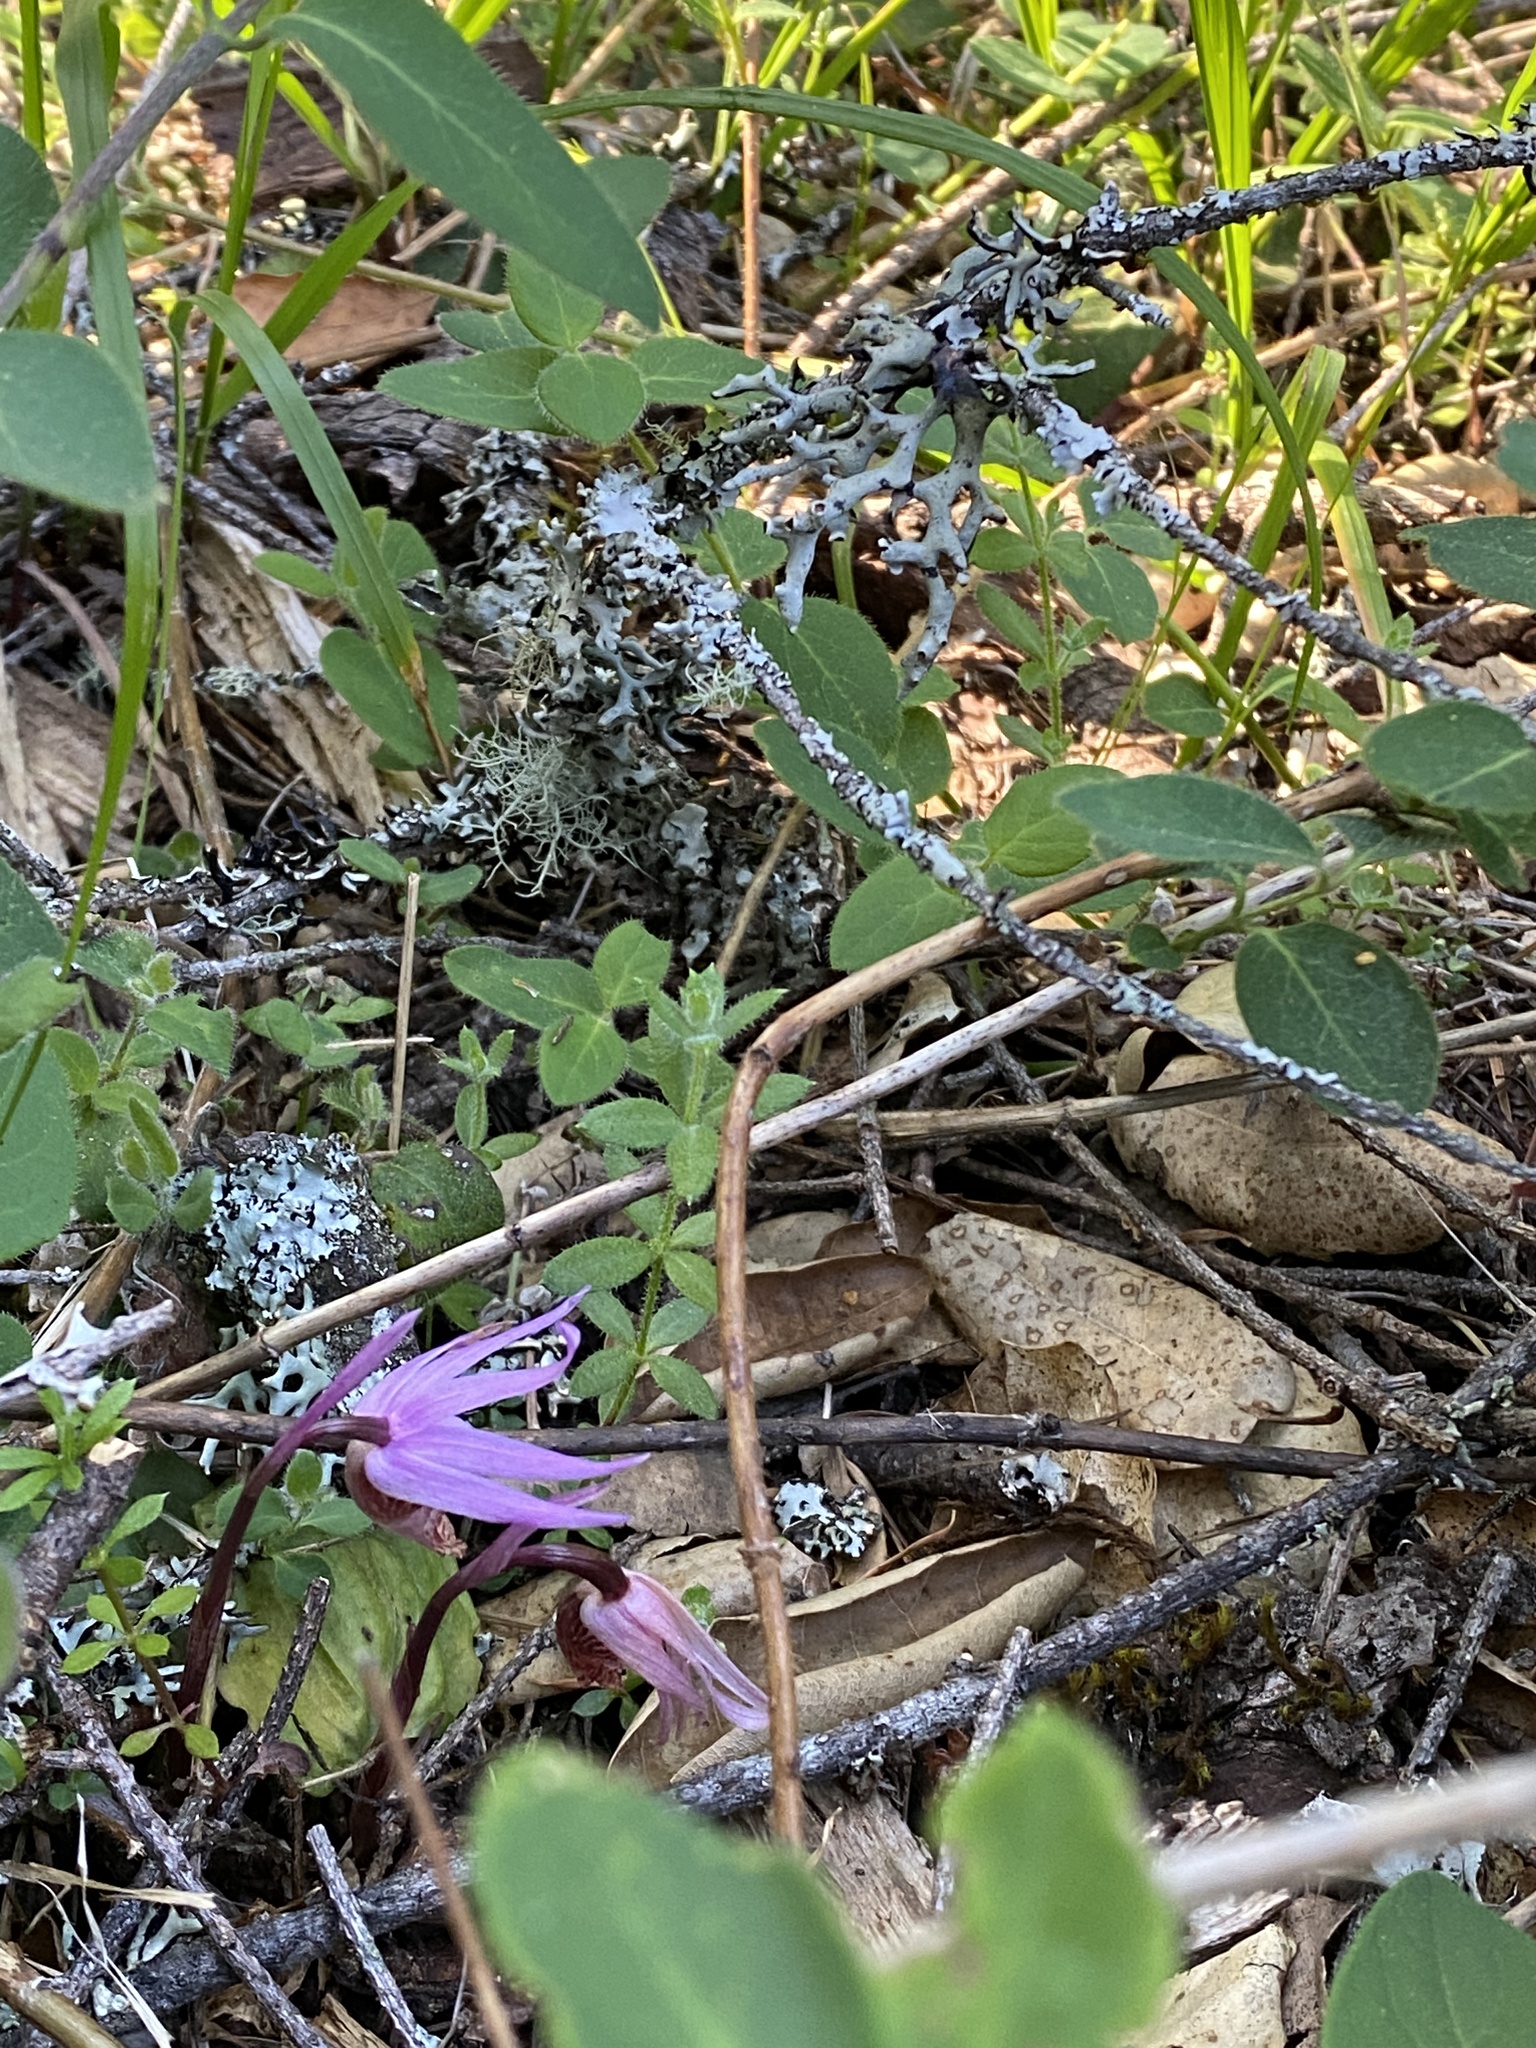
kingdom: Plantae
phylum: Tracheophyta
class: Liliopsida
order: Asparagales
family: Orchidaceae
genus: Calypso
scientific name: Calypso bulbosa
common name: Calypso
